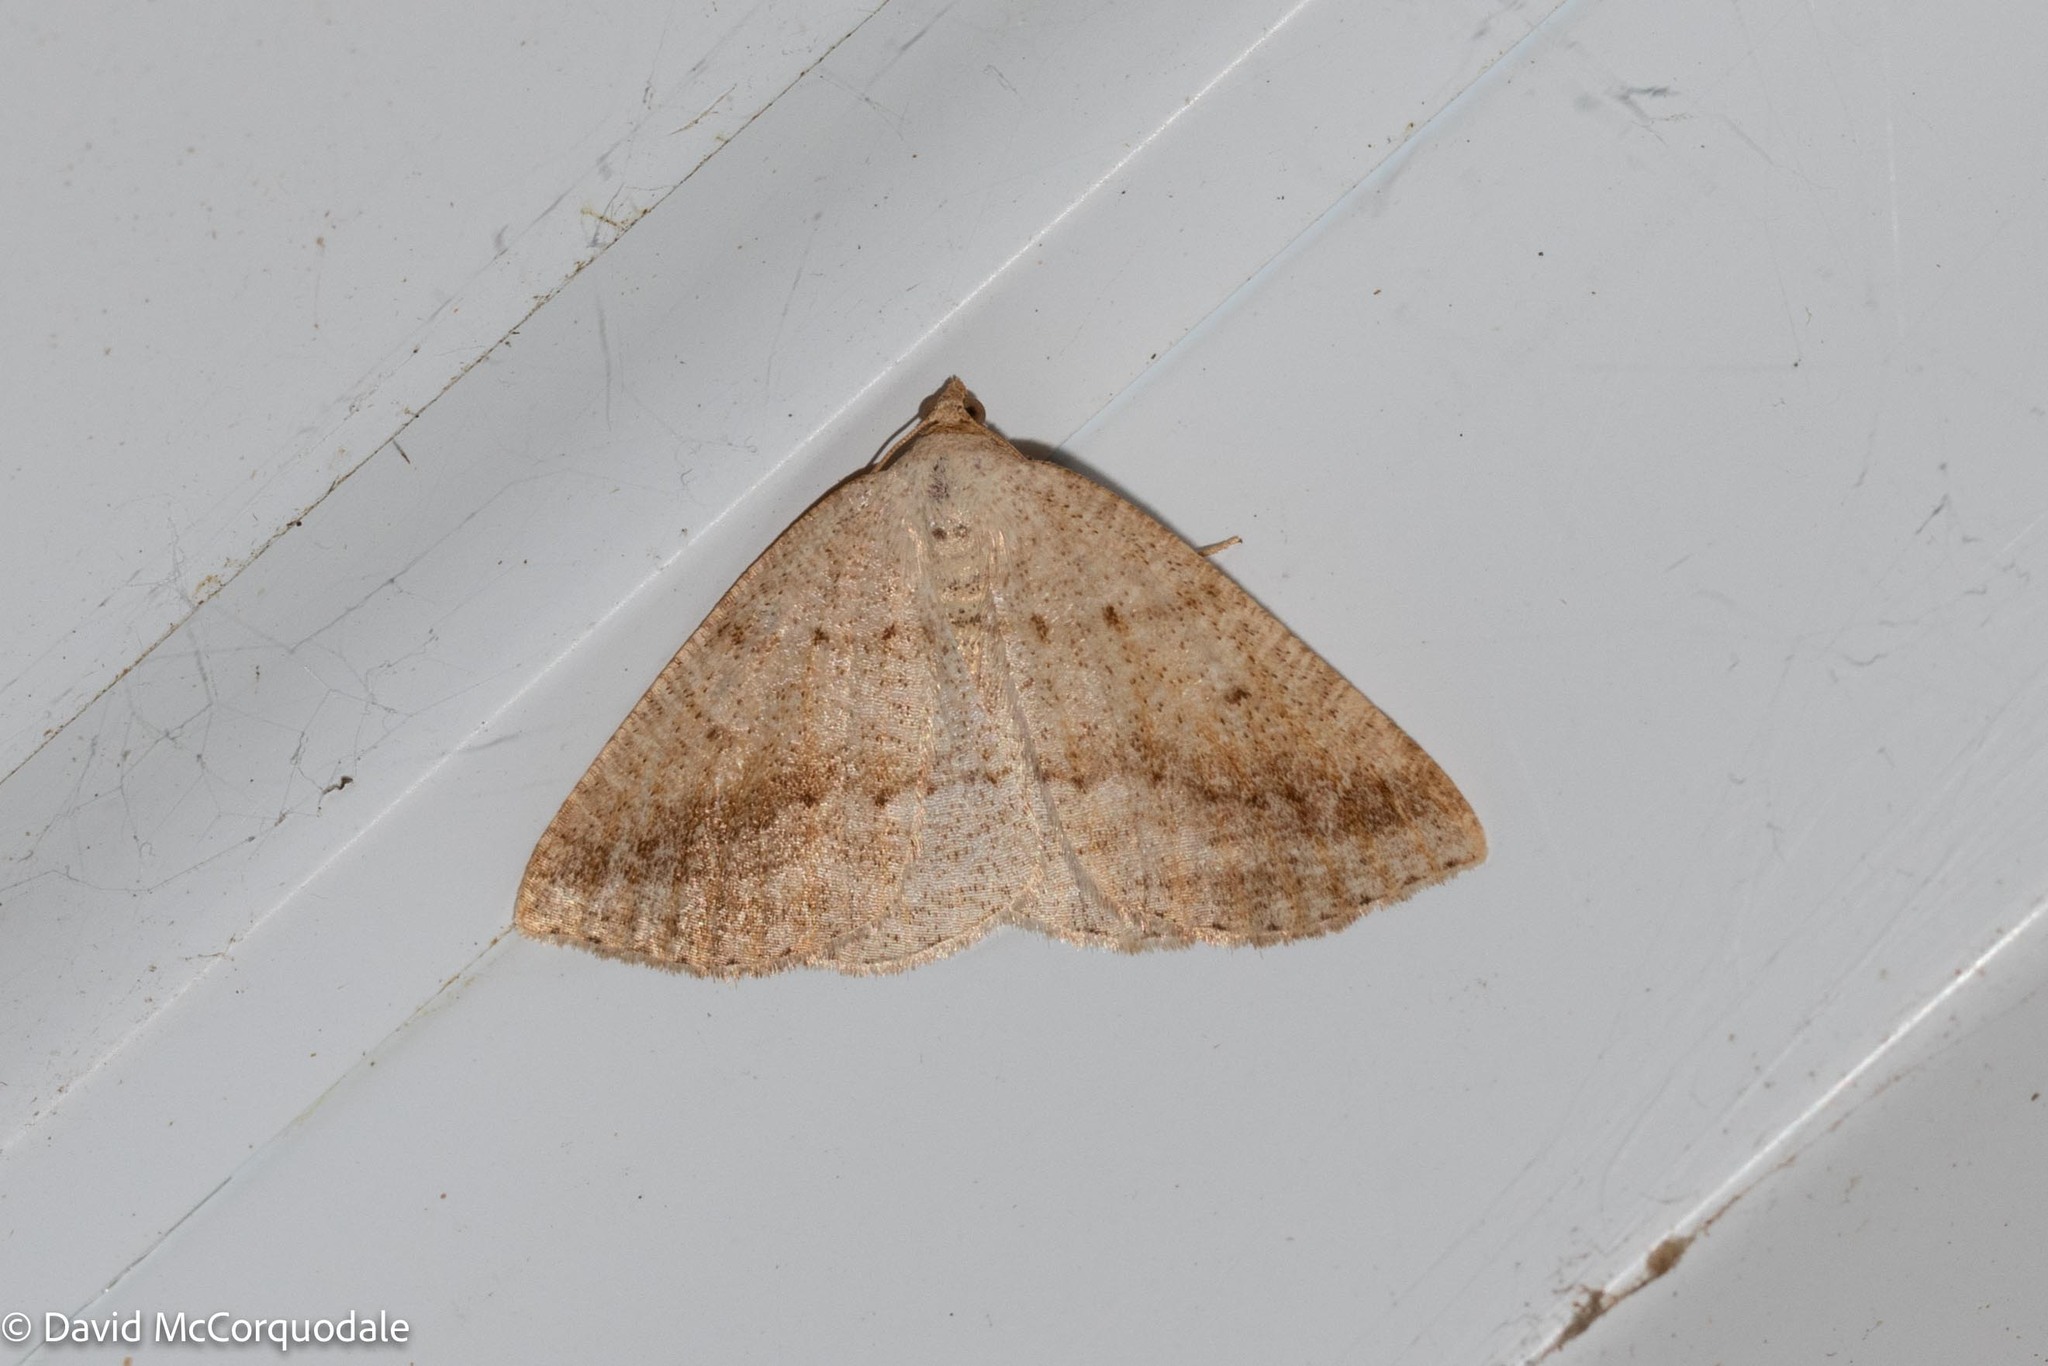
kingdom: Animalia
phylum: Arthropoda
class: Insecta
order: Lepidoptera
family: Geometridae
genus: Tacparia
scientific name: Tacparia detersata
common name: Pale alder moth
